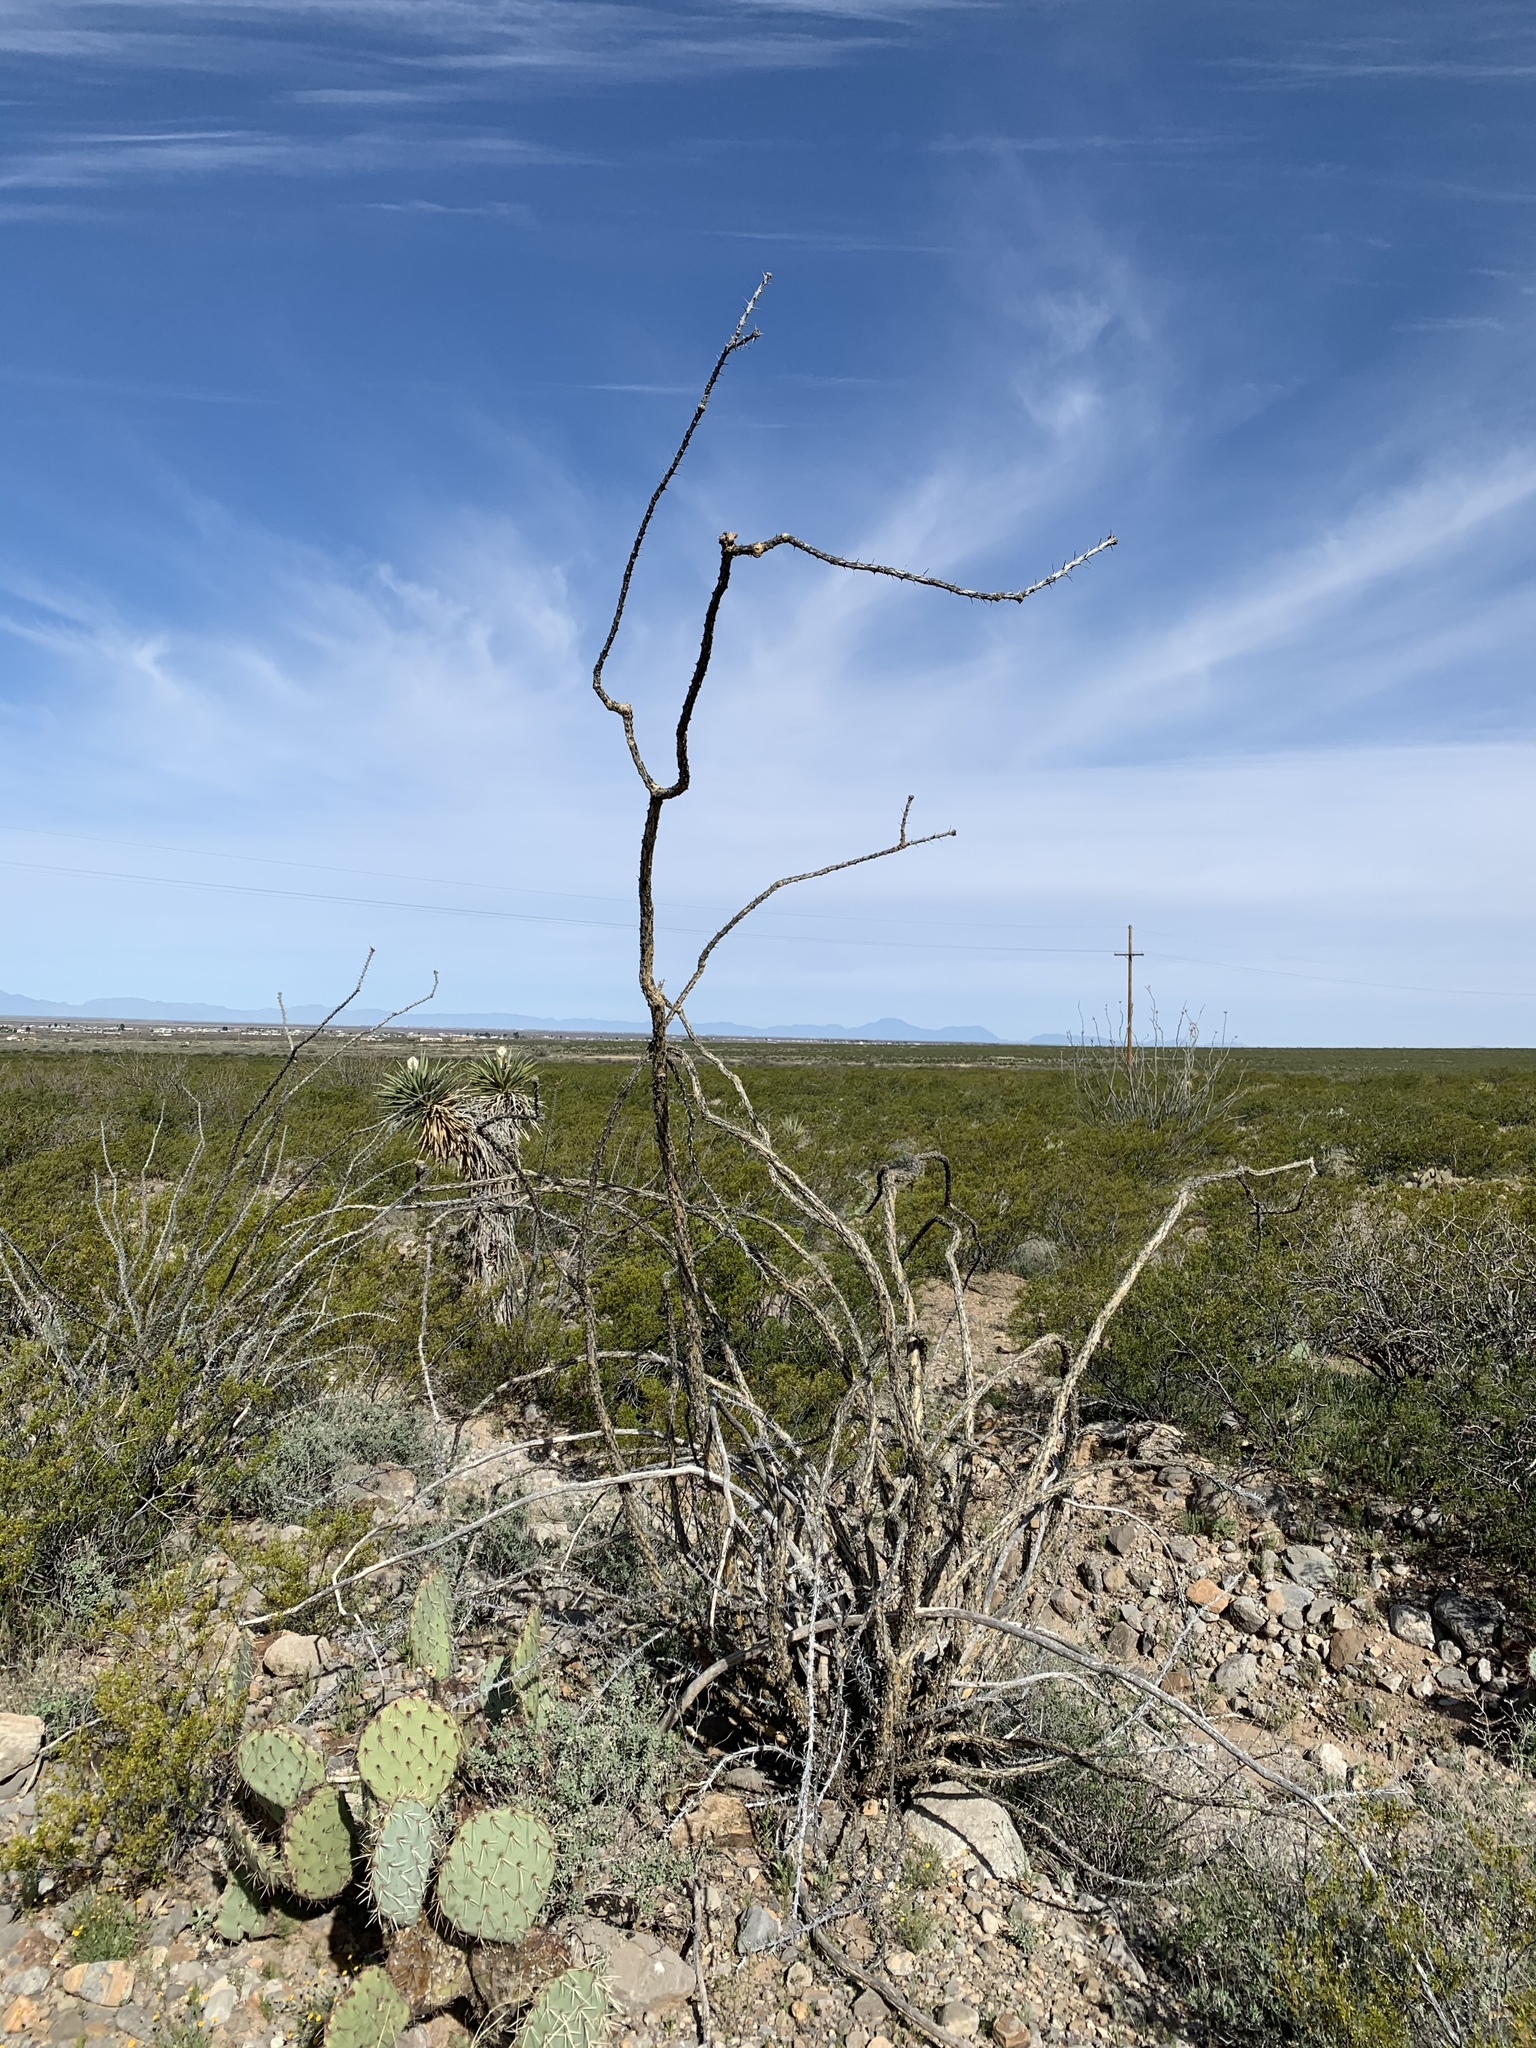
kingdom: Plantae
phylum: Tracheophyta
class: Magnoliopsida
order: Ericales
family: Fouquieriaceae
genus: Fouquieria
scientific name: Fouquieria splendens
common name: Vine-cactus
